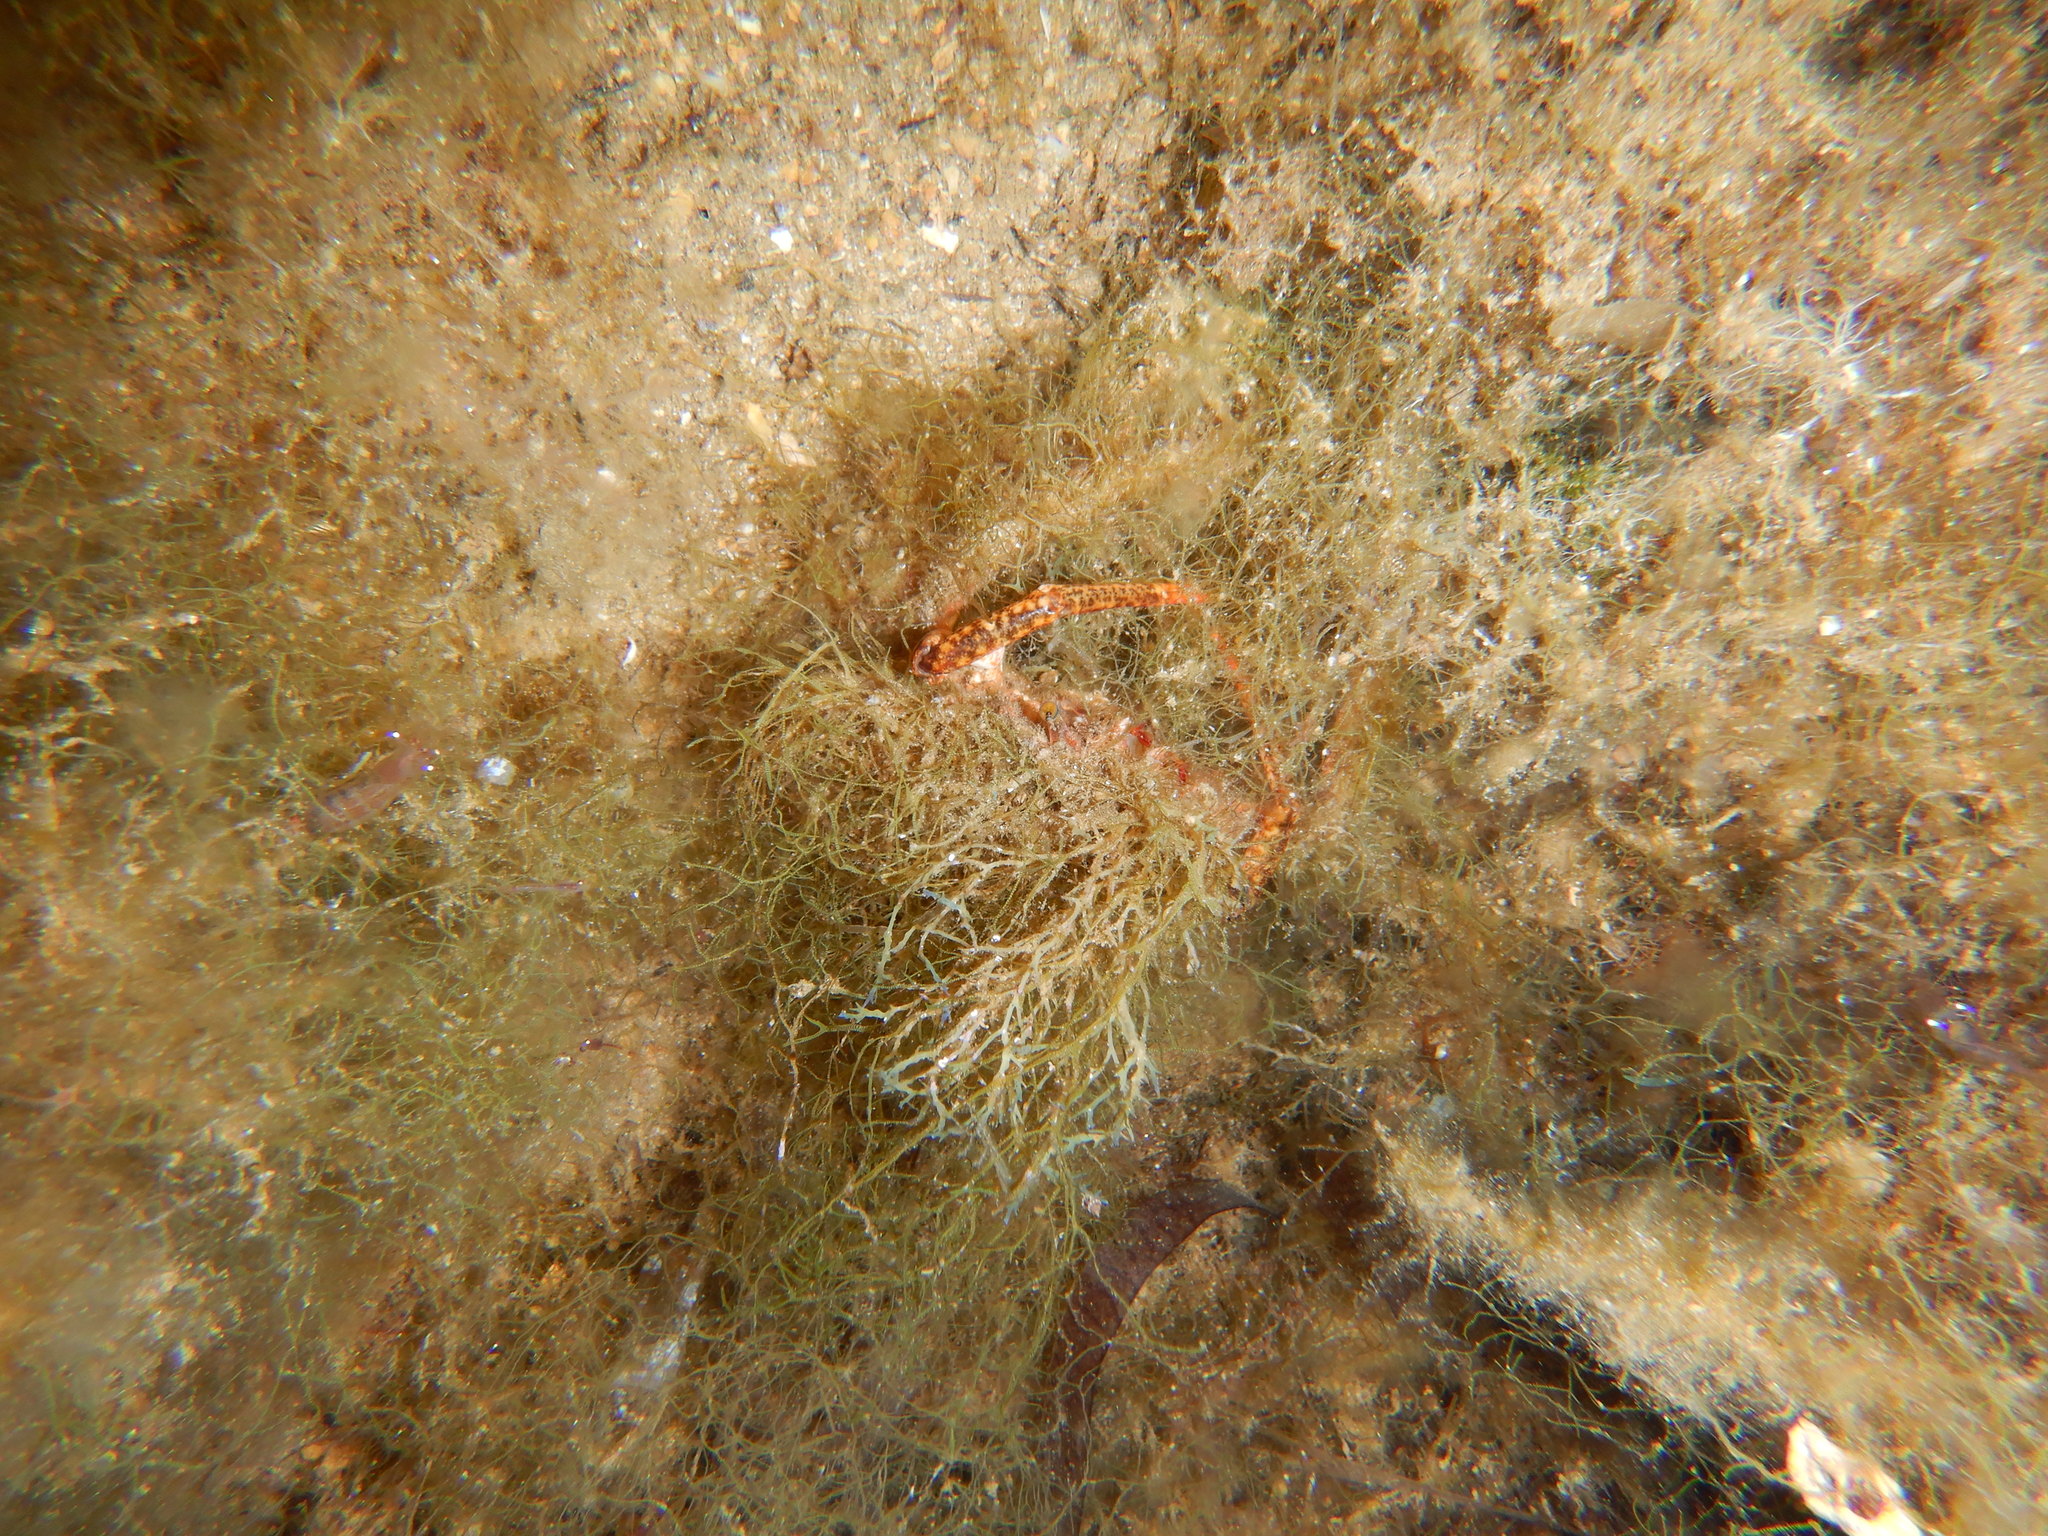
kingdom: Animalia
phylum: Arthropoda
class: Malacostraca
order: Decapoda
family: Majidae
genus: Maja
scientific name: Maja crispata
